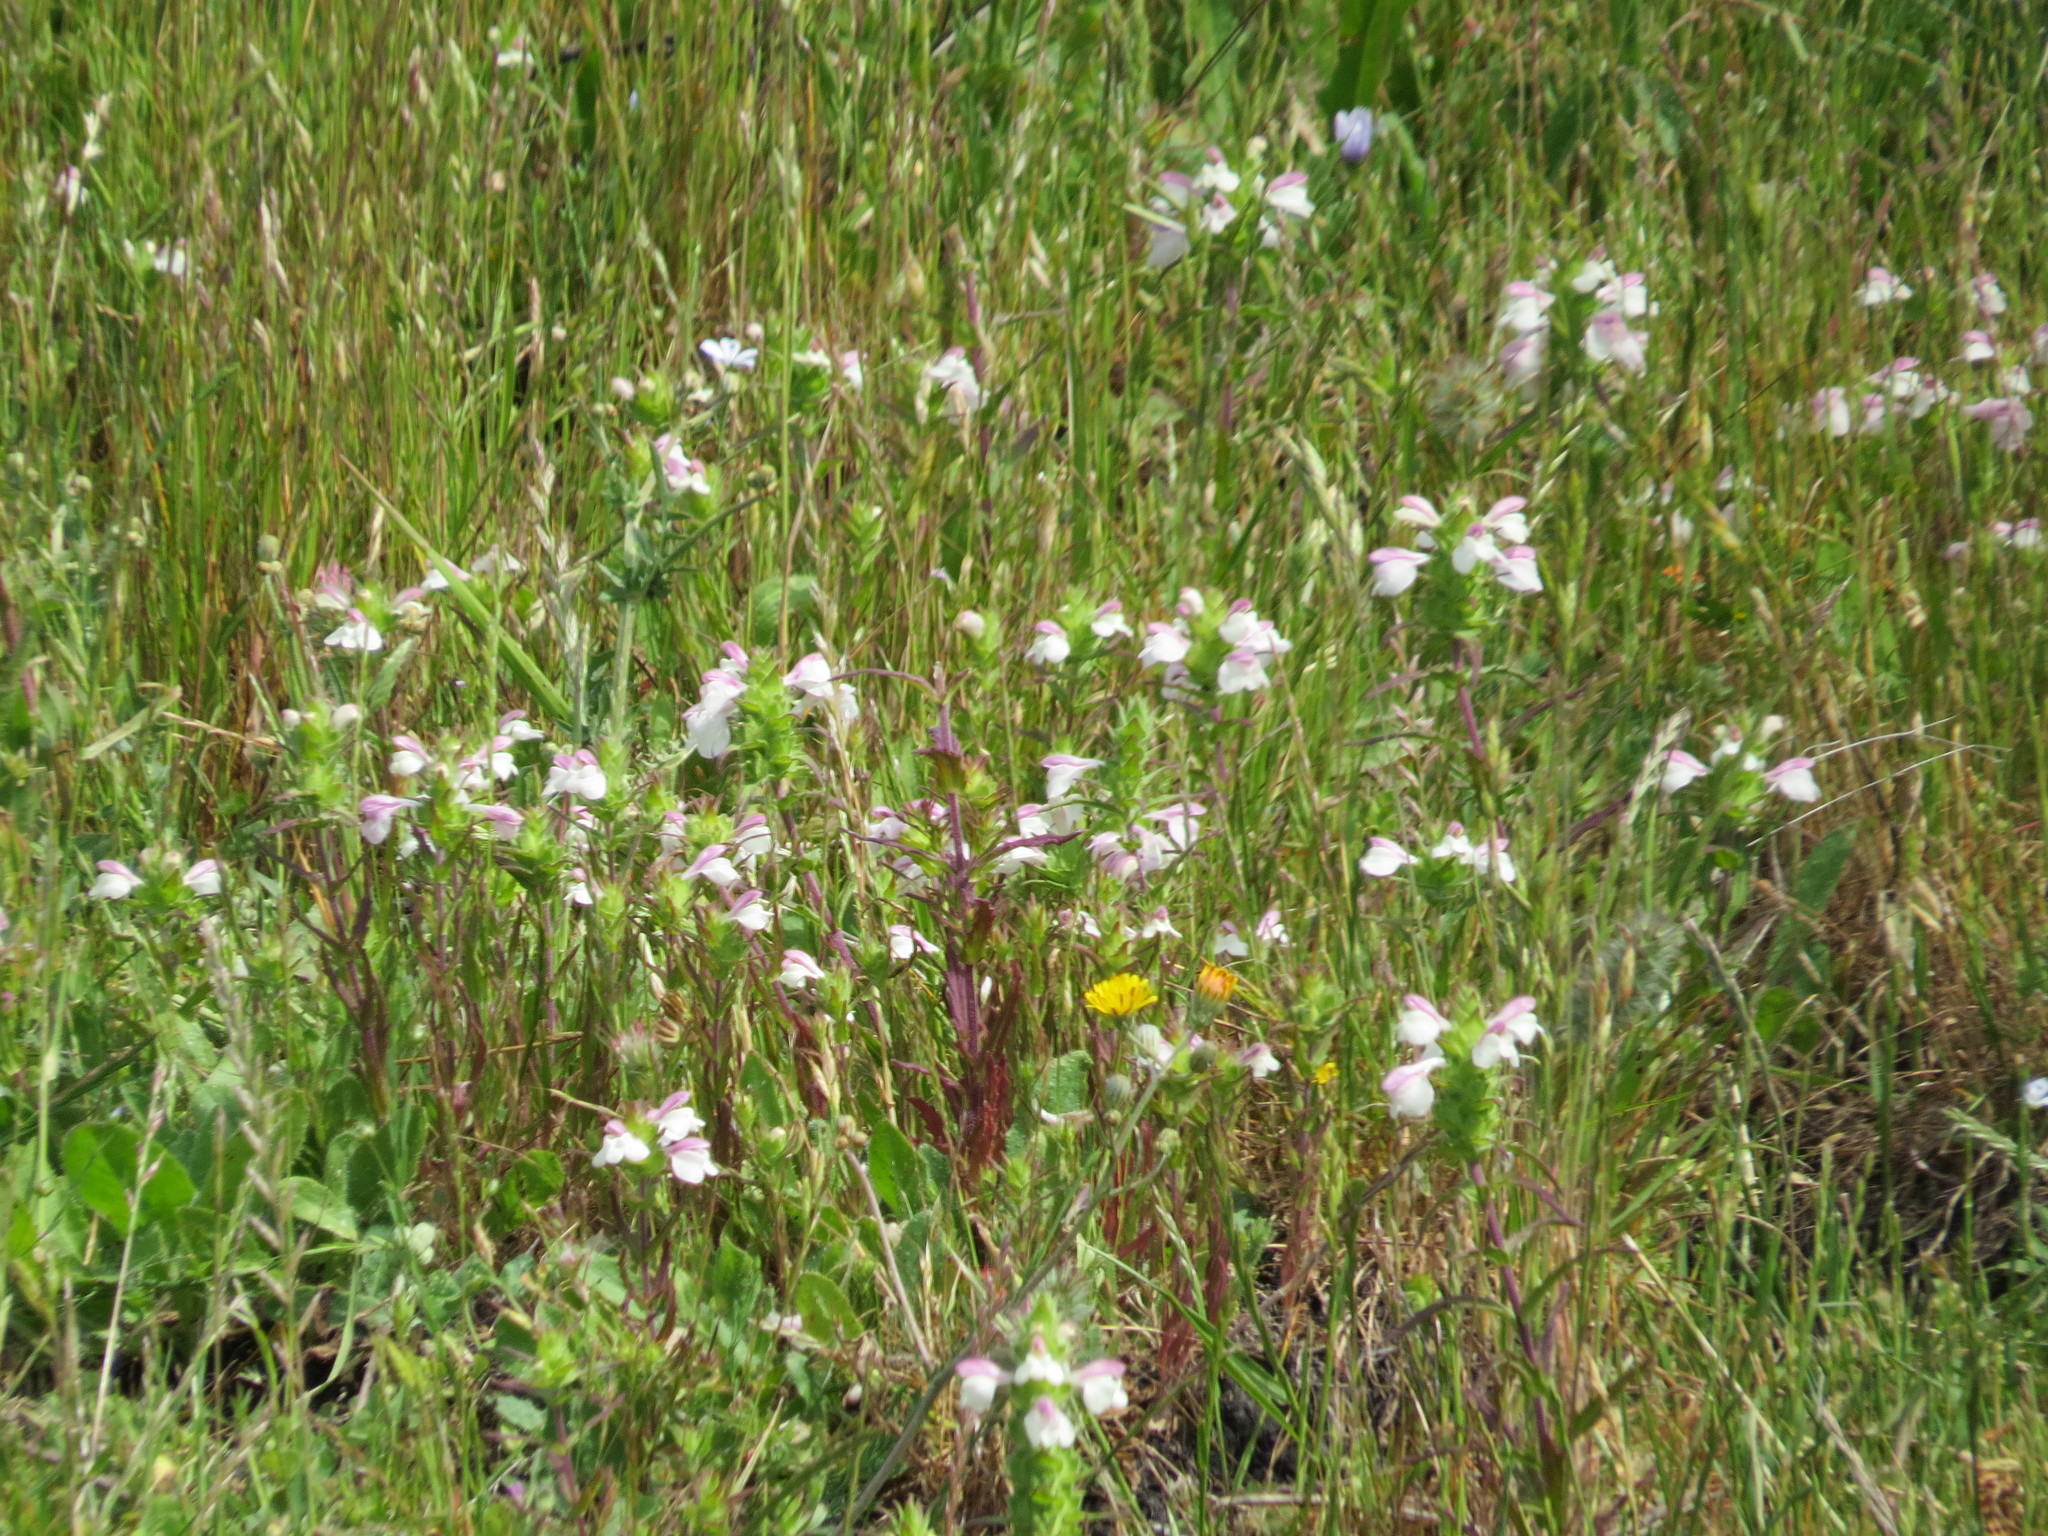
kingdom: Plantae
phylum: Tracheophyta
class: Magnoliopsida
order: Lamiales
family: Orobanchaceae
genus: Bellardia
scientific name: Bellardia trixago
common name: Mediterranean lineseed
